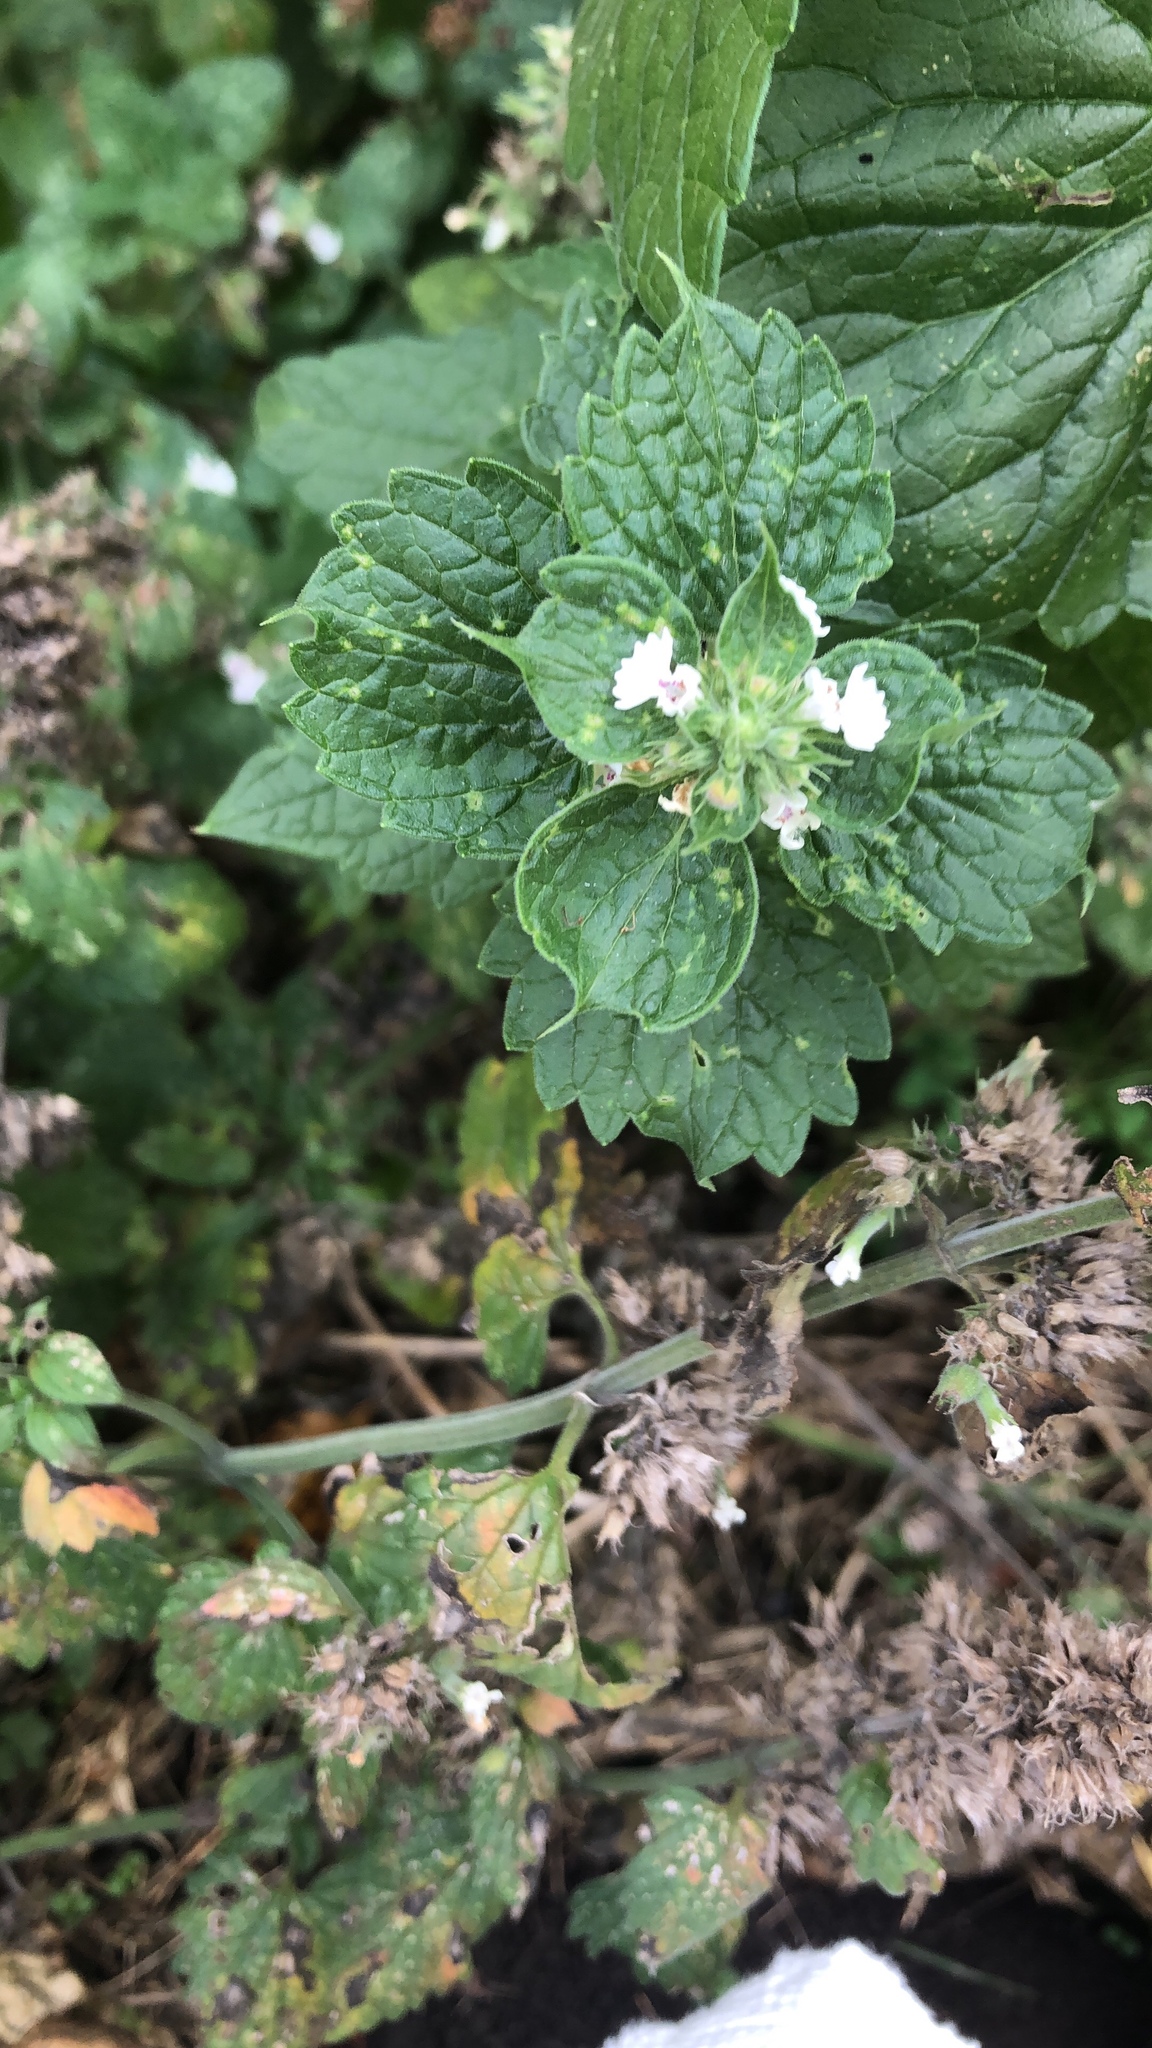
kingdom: Plantae
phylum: Tracheophyta
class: Magnoliopsida
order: Lamiales
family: Lamiaceae
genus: Nepeta
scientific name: Nepeta cataria
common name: Catnip
